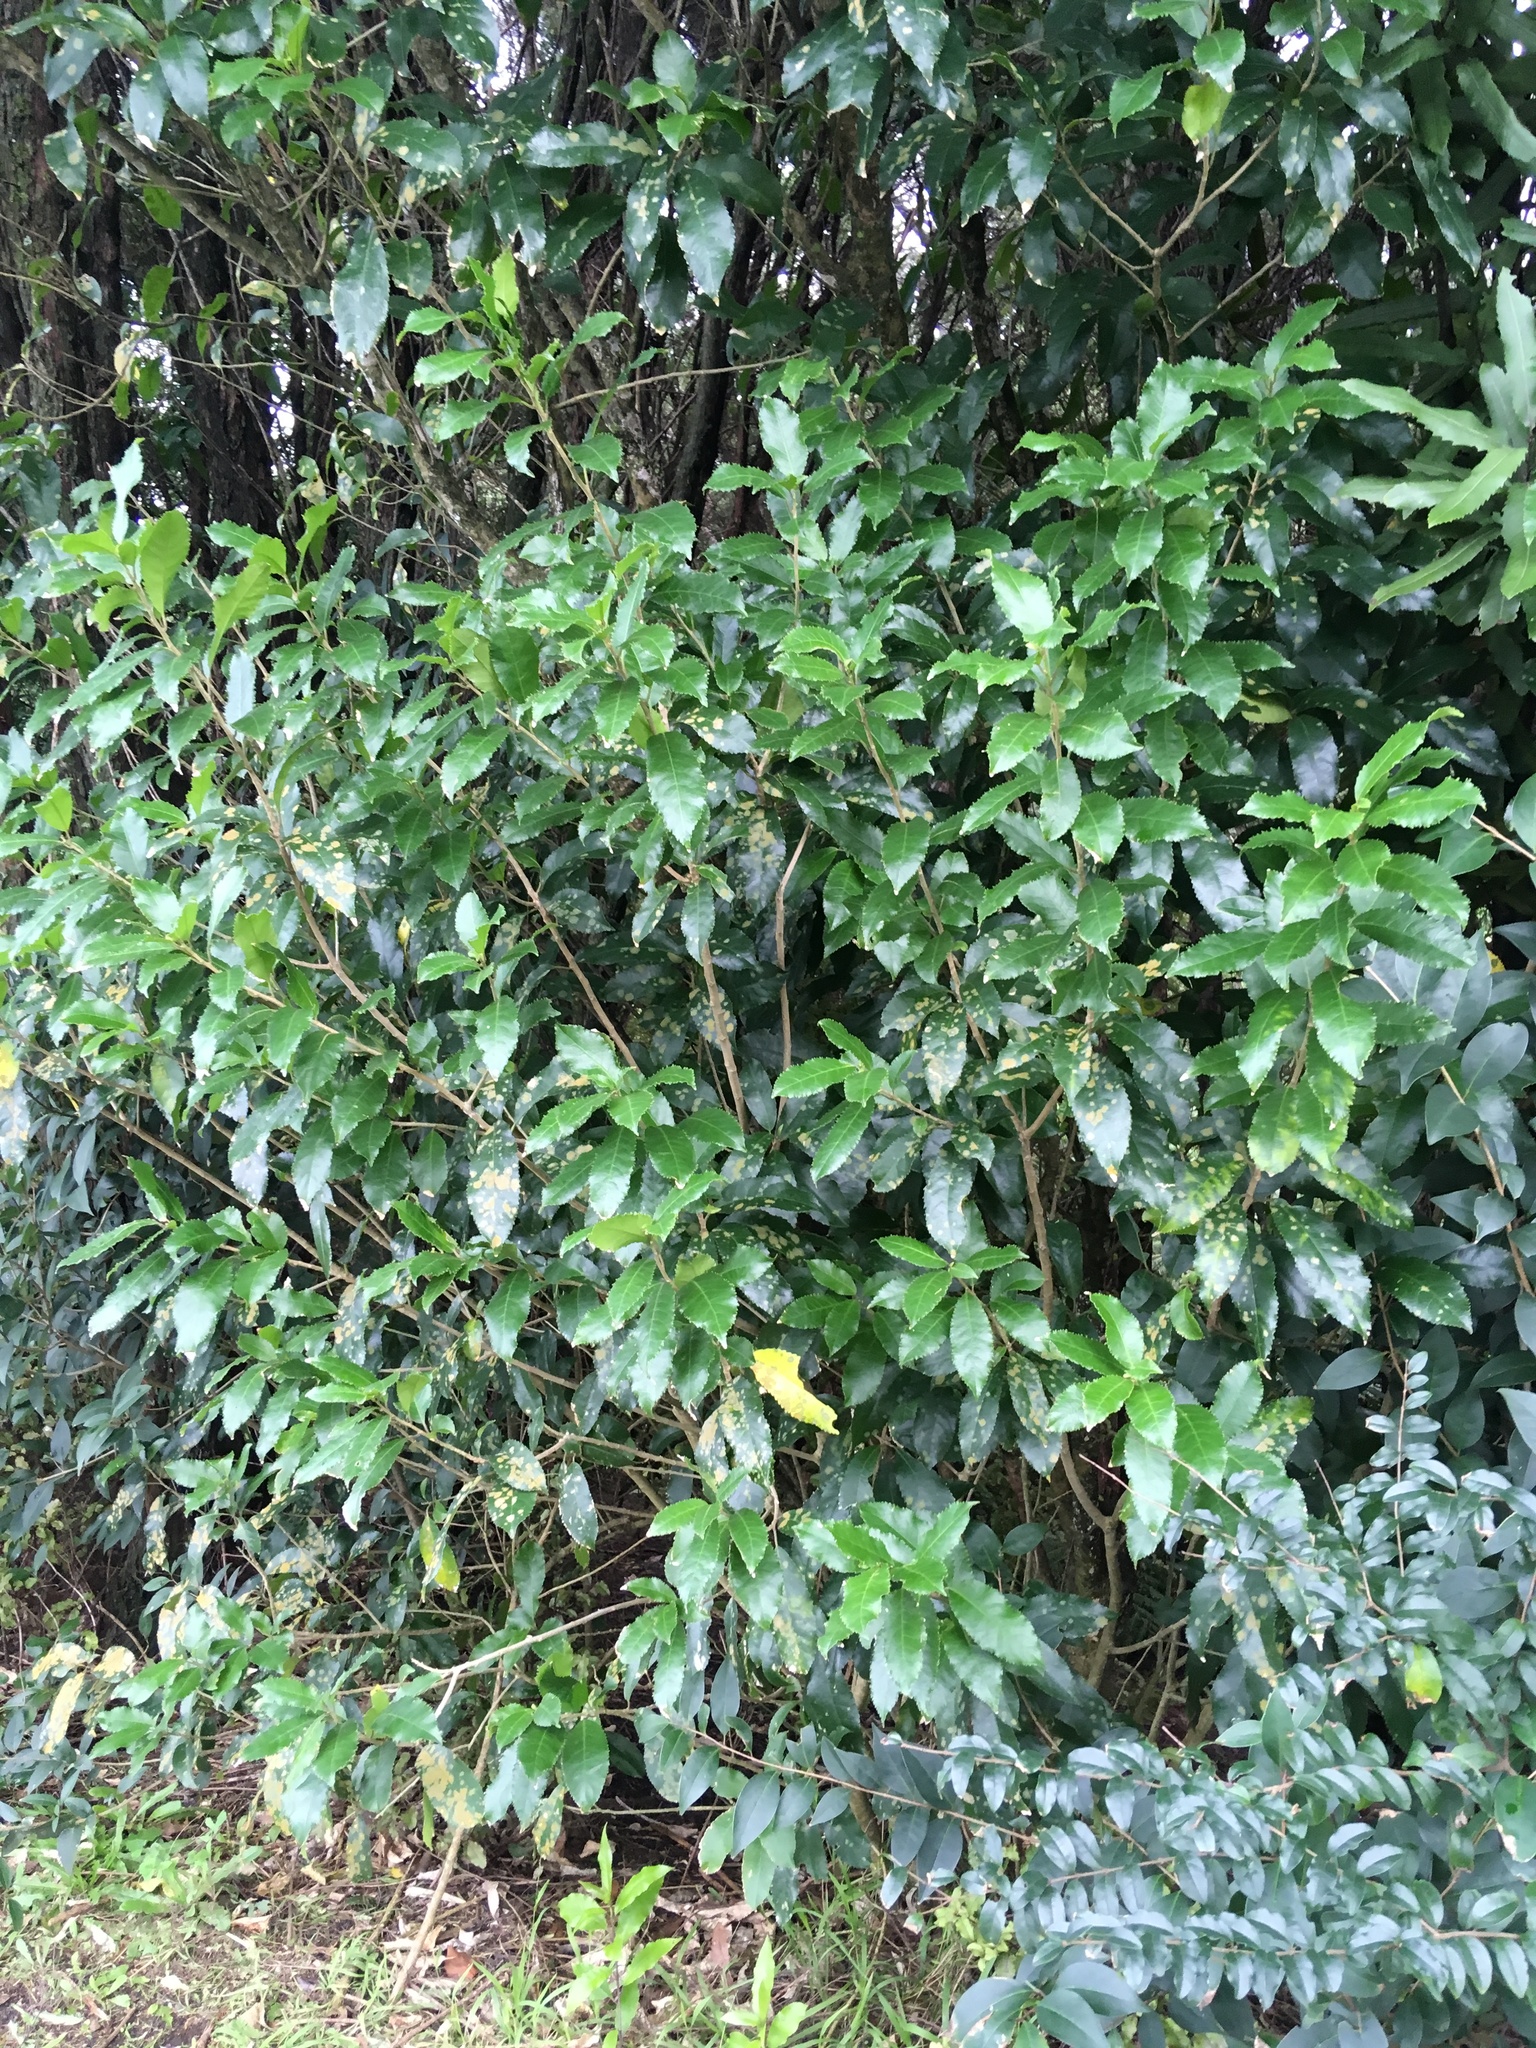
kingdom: Plantae
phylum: Tracheophyta
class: Magnoliopsida
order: Lamiales
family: Oleaceae
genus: Ligustrum
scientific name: Ligustrum sinense
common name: Chinese privet
